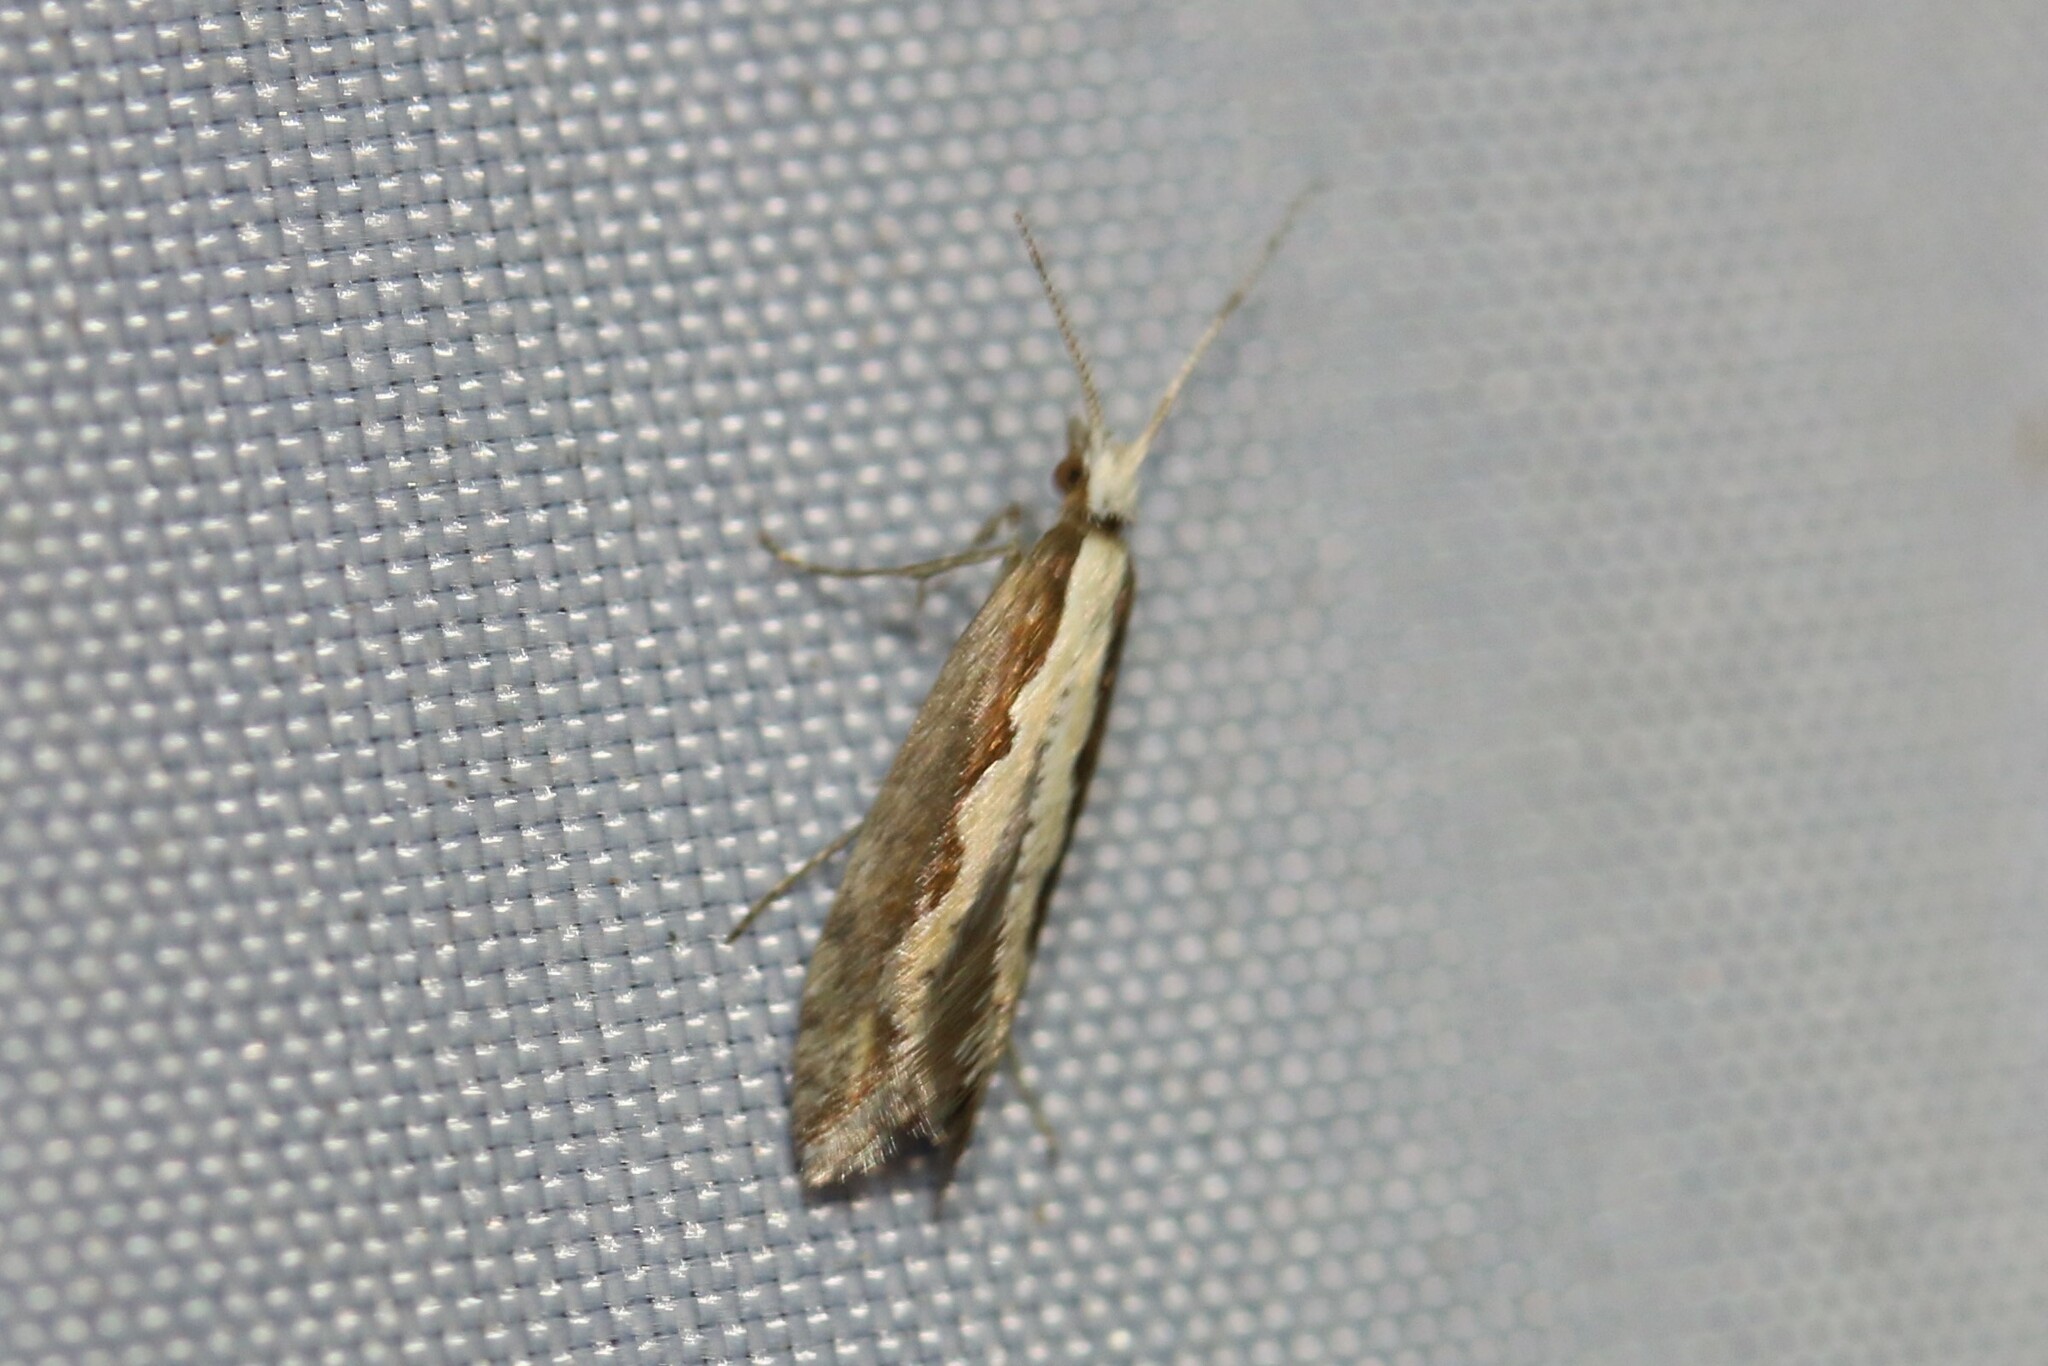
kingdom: Animalia
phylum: Arthropoda
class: Insecta
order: Lepidoptera
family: Plutellidae
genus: Plutella
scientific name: Plutella xylostella
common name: Diamond-back moth
